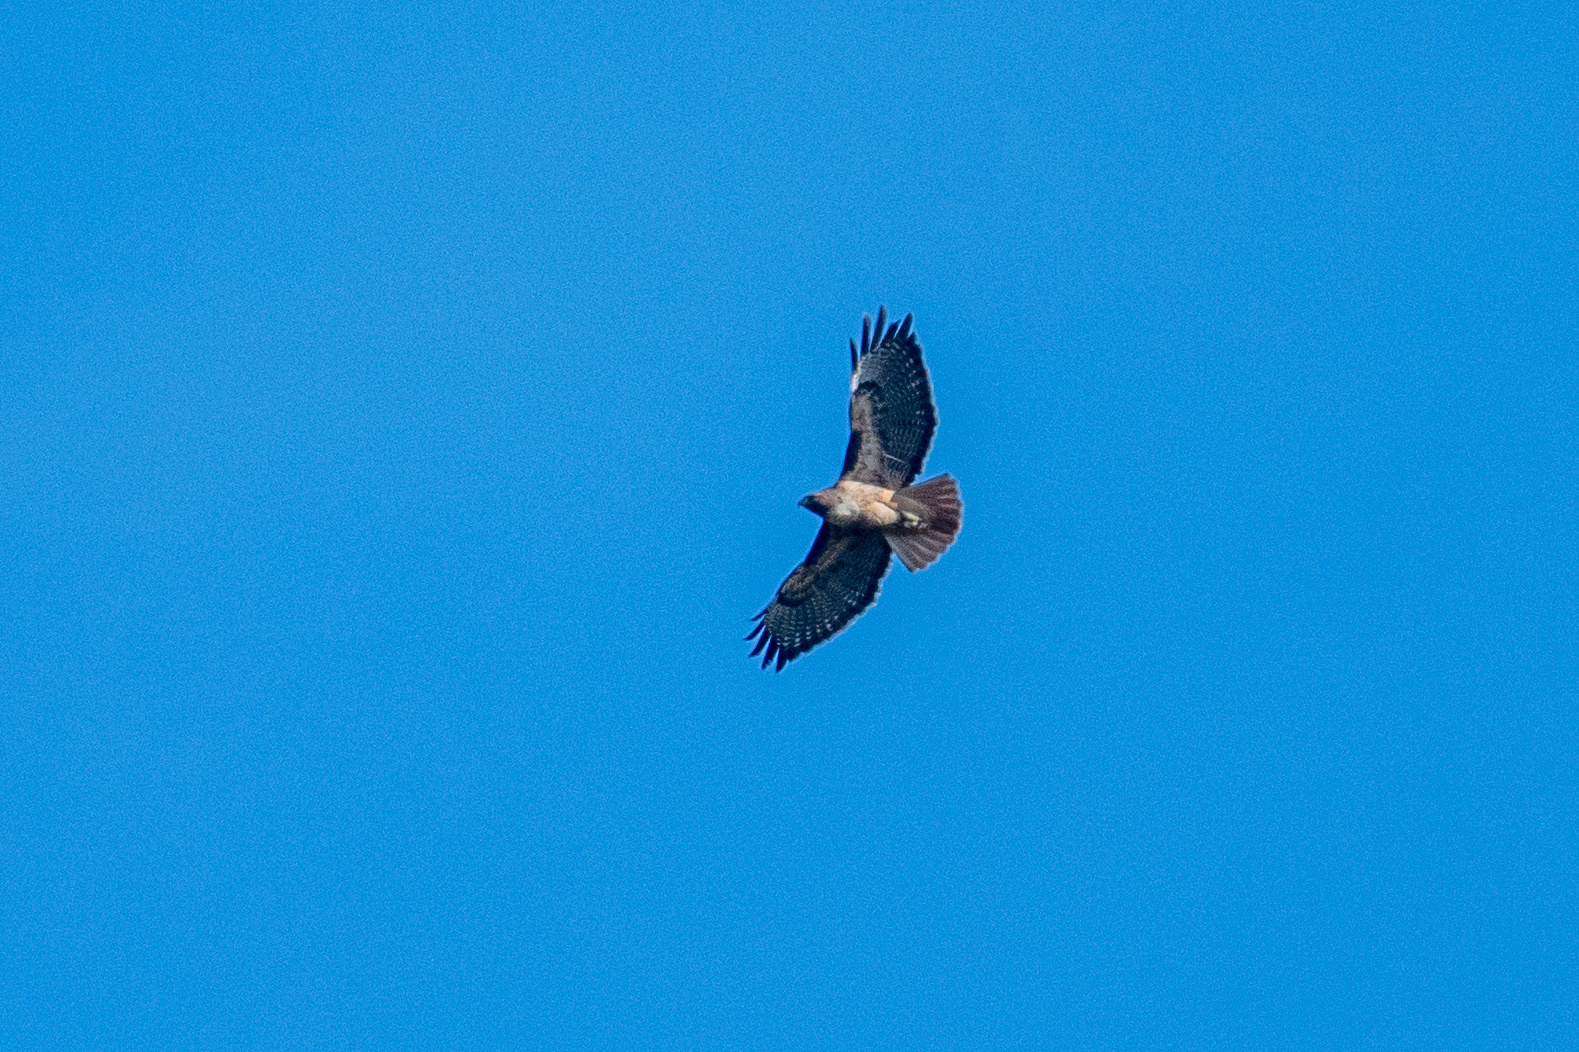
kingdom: Animalia
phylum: Chordata
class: Aves
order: Accipitriformes
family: Accipitridae
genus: Buteo
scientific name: Buteo jamaicensis
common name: Red-tailed hawk
